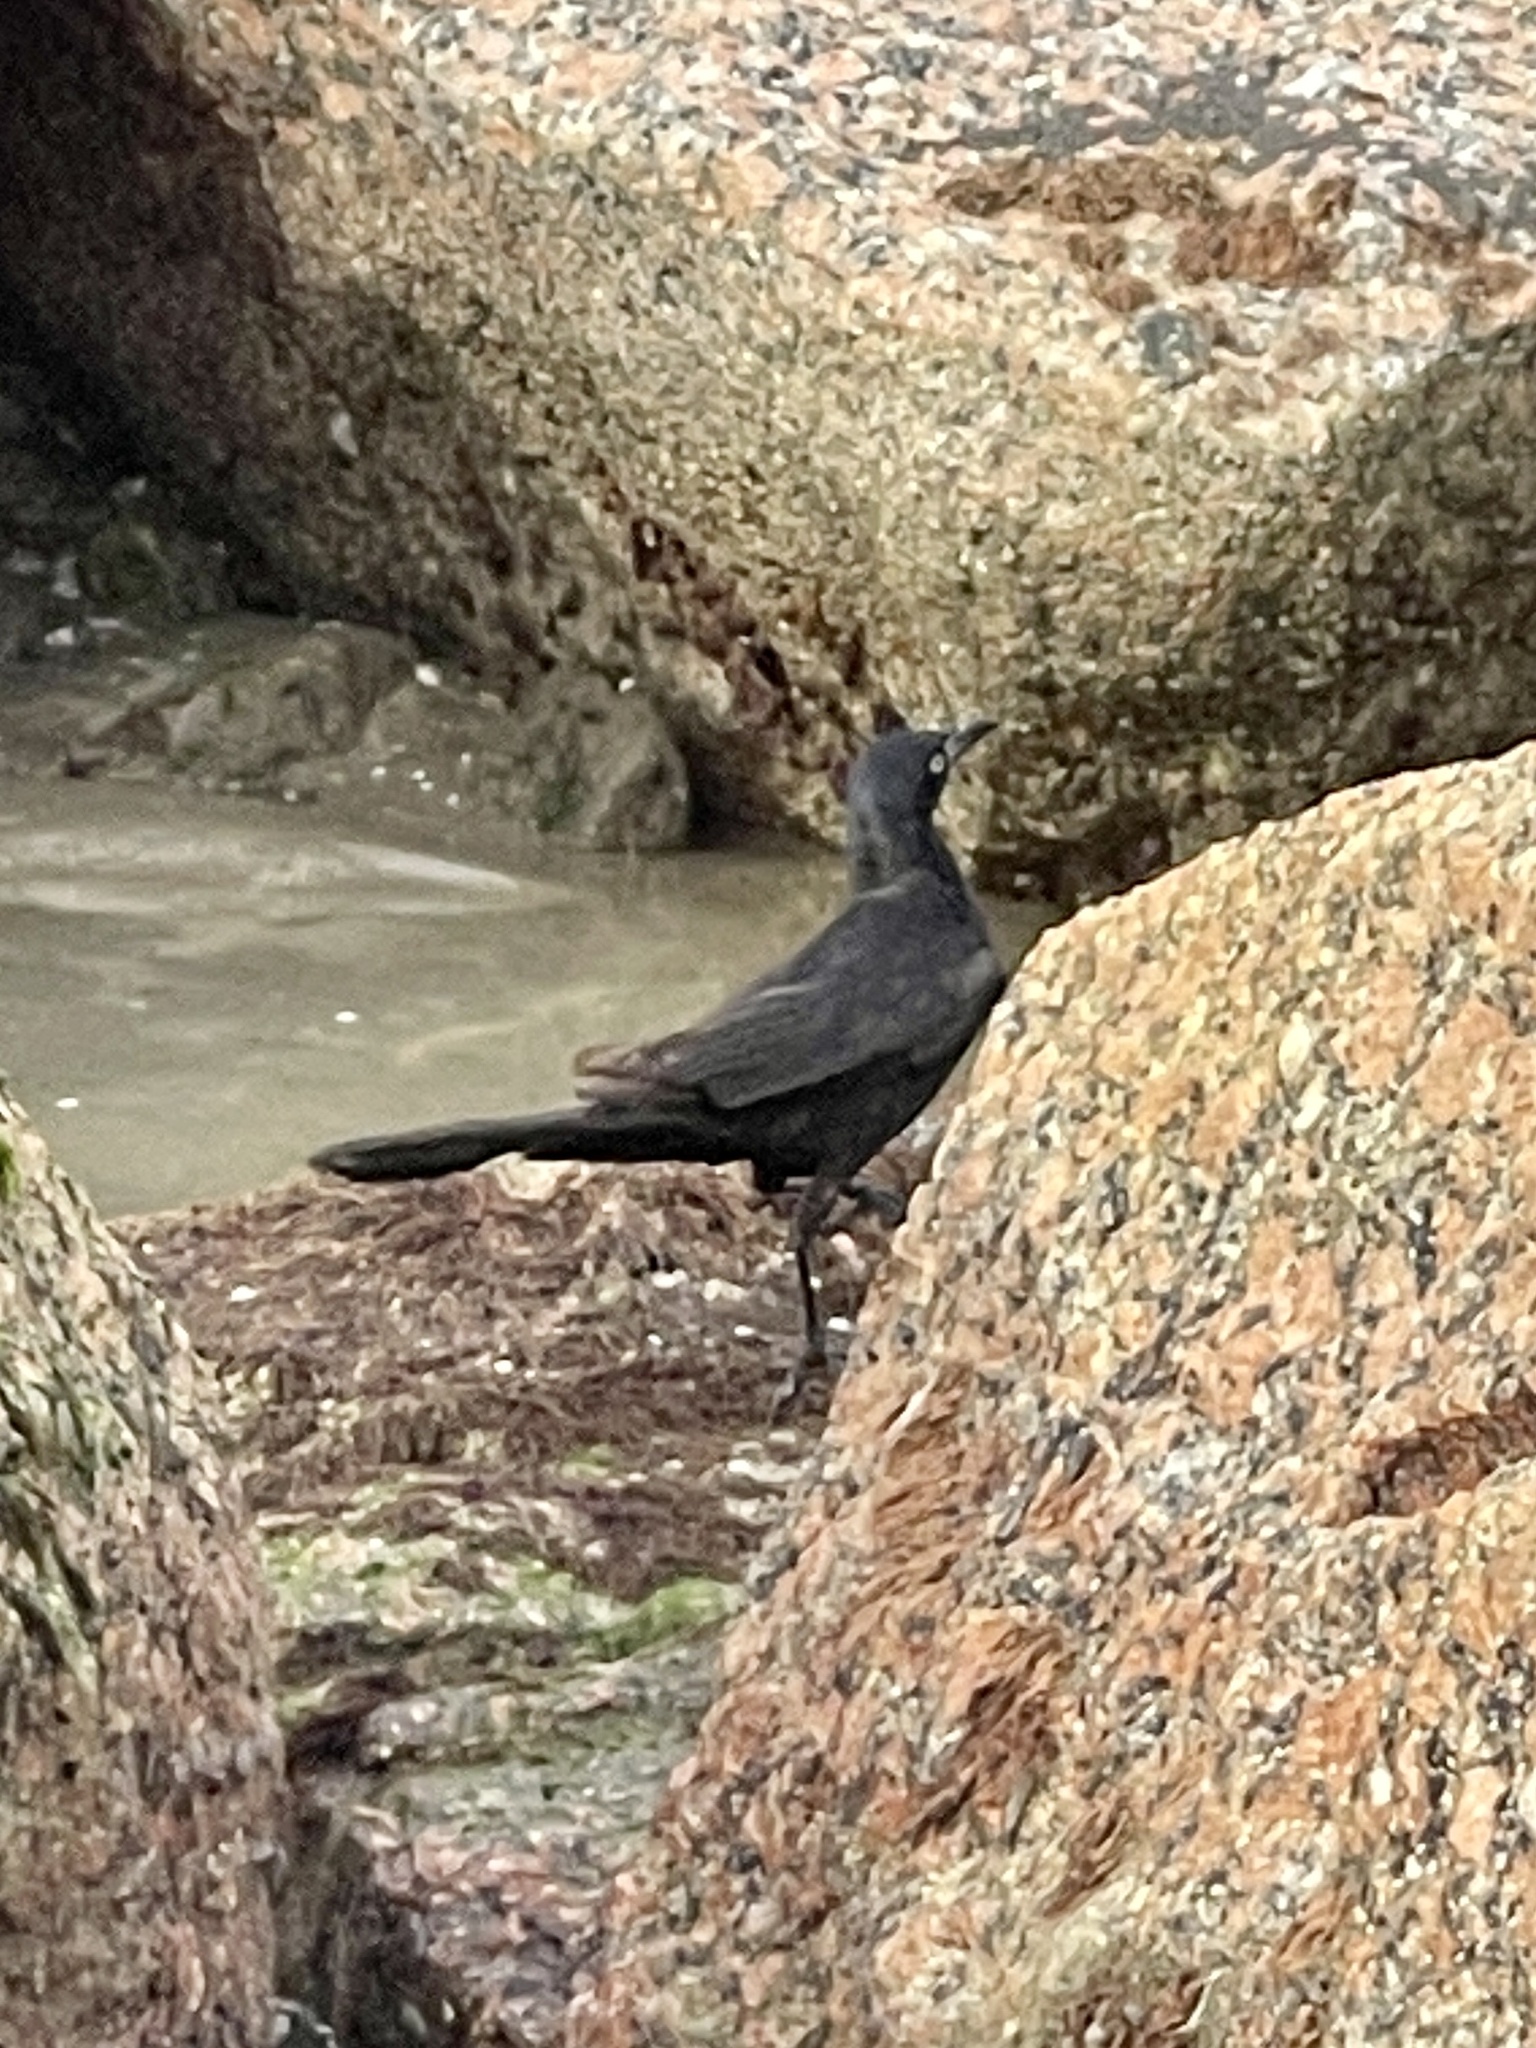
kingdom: Animalia
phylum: Chordata
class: Aves
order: Passeriformes
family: Icteridae
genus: Quiscalus
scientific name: Quiscalus mexicanus
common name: Great-tailed grackle
